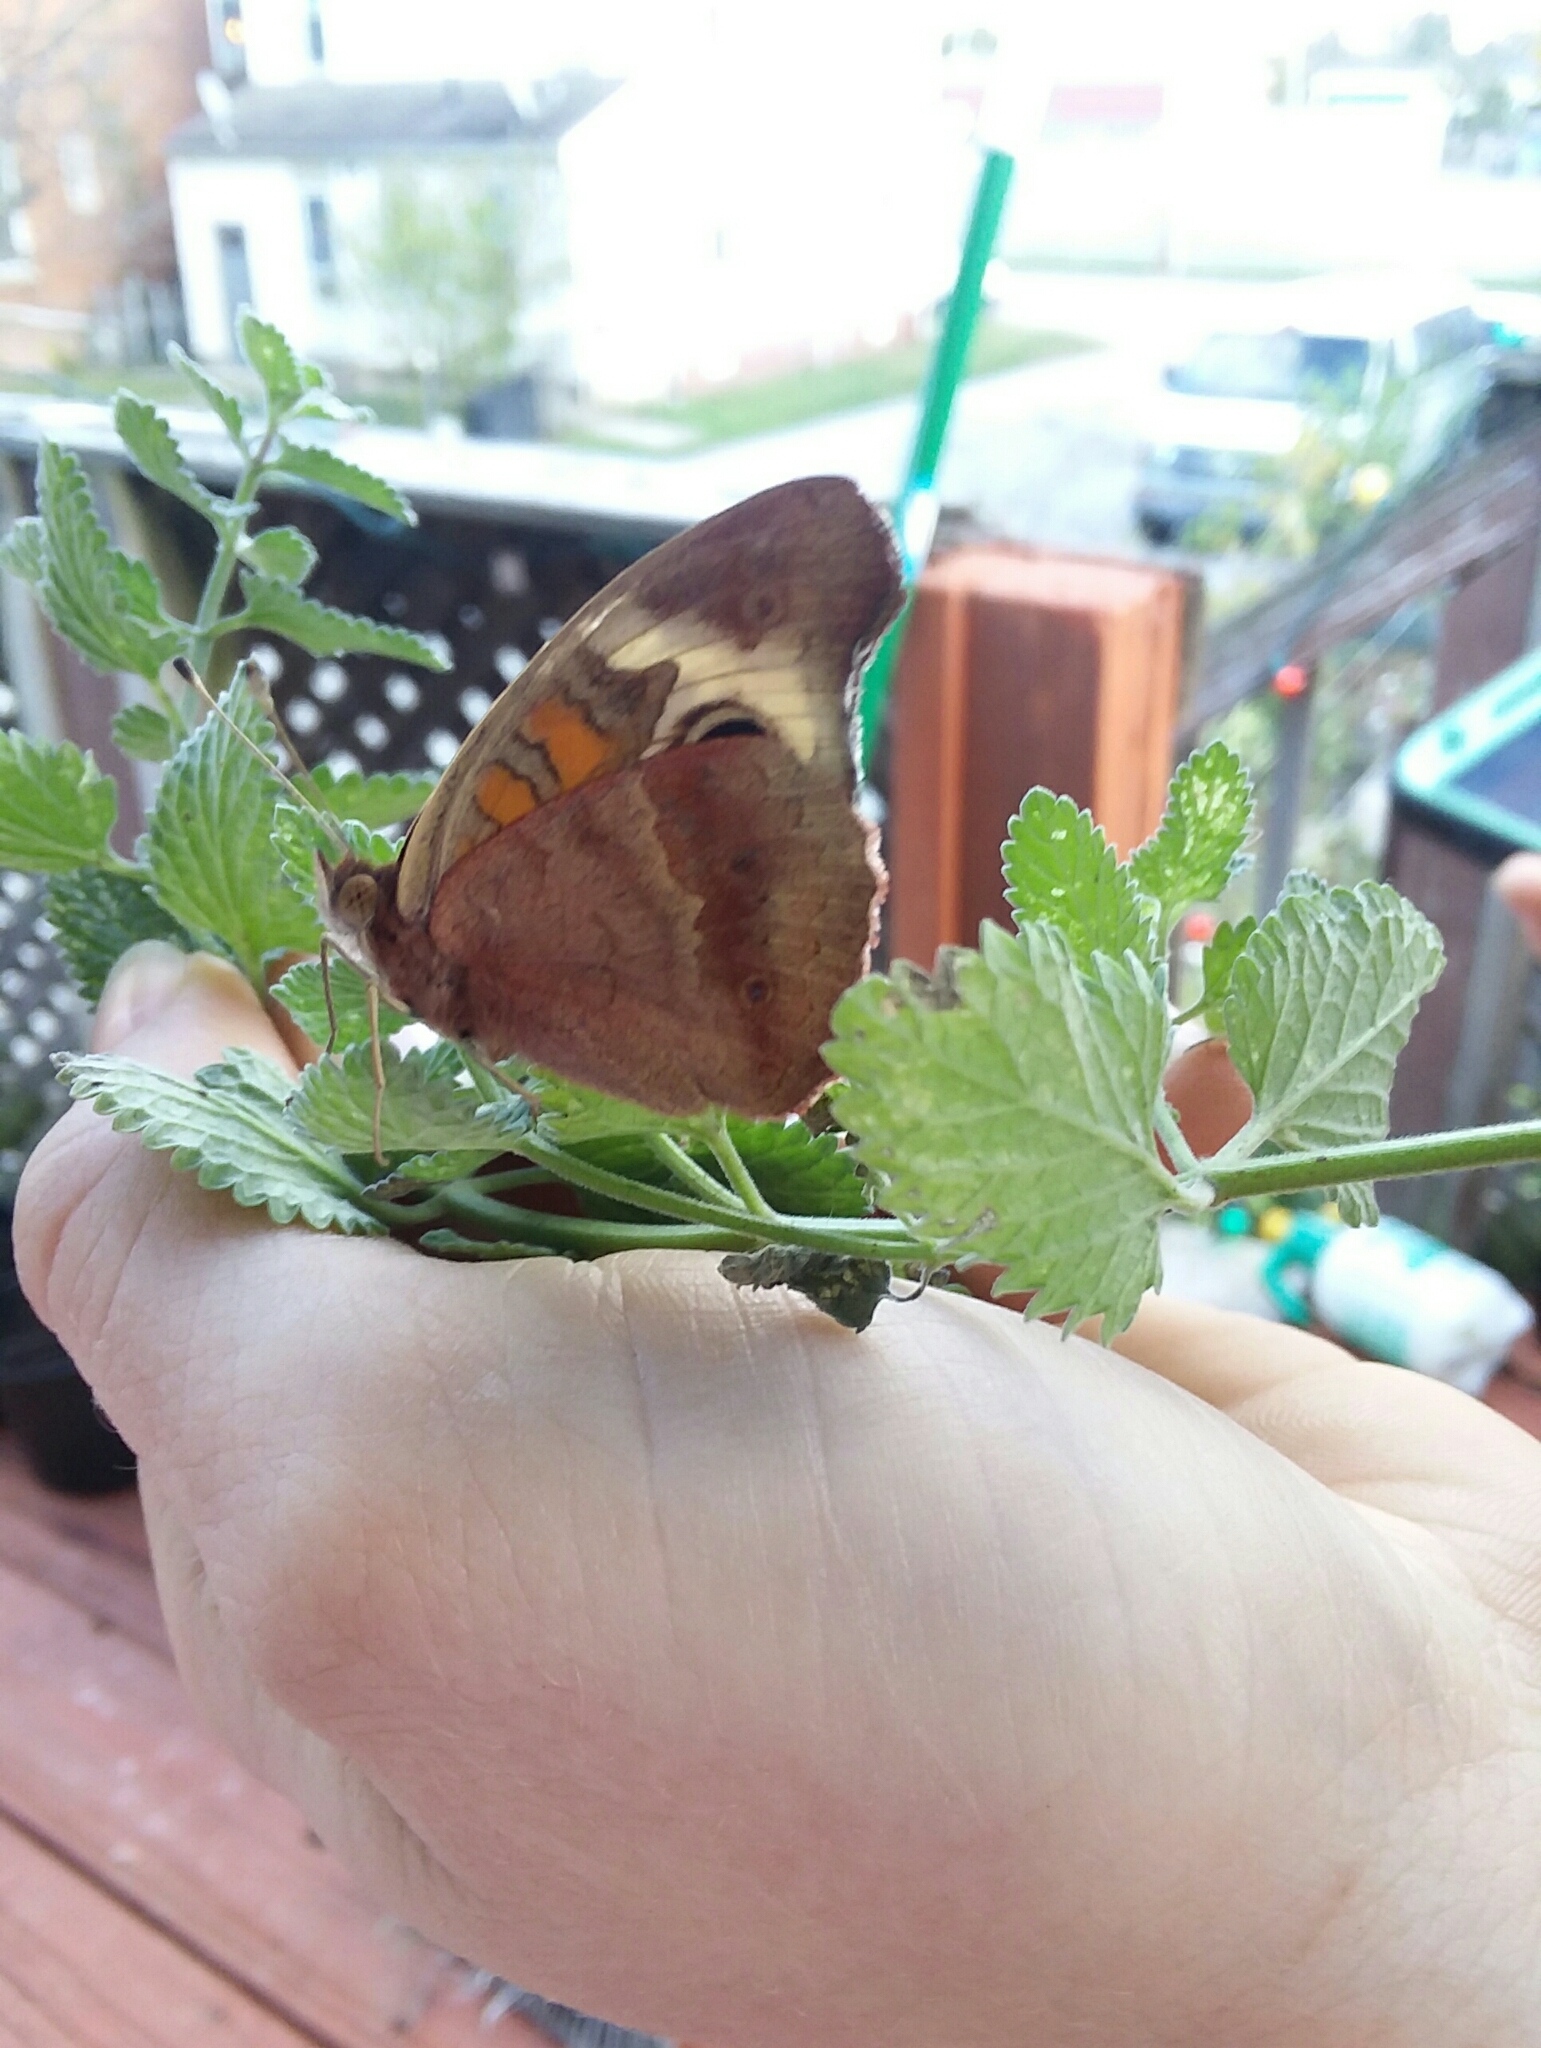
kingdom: Animalia
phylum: Arthropoda
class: Insecta
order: Lepidoptera
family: Nymphalidae
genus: Junonia
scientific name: Junonia coenia
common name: Common buckeye
